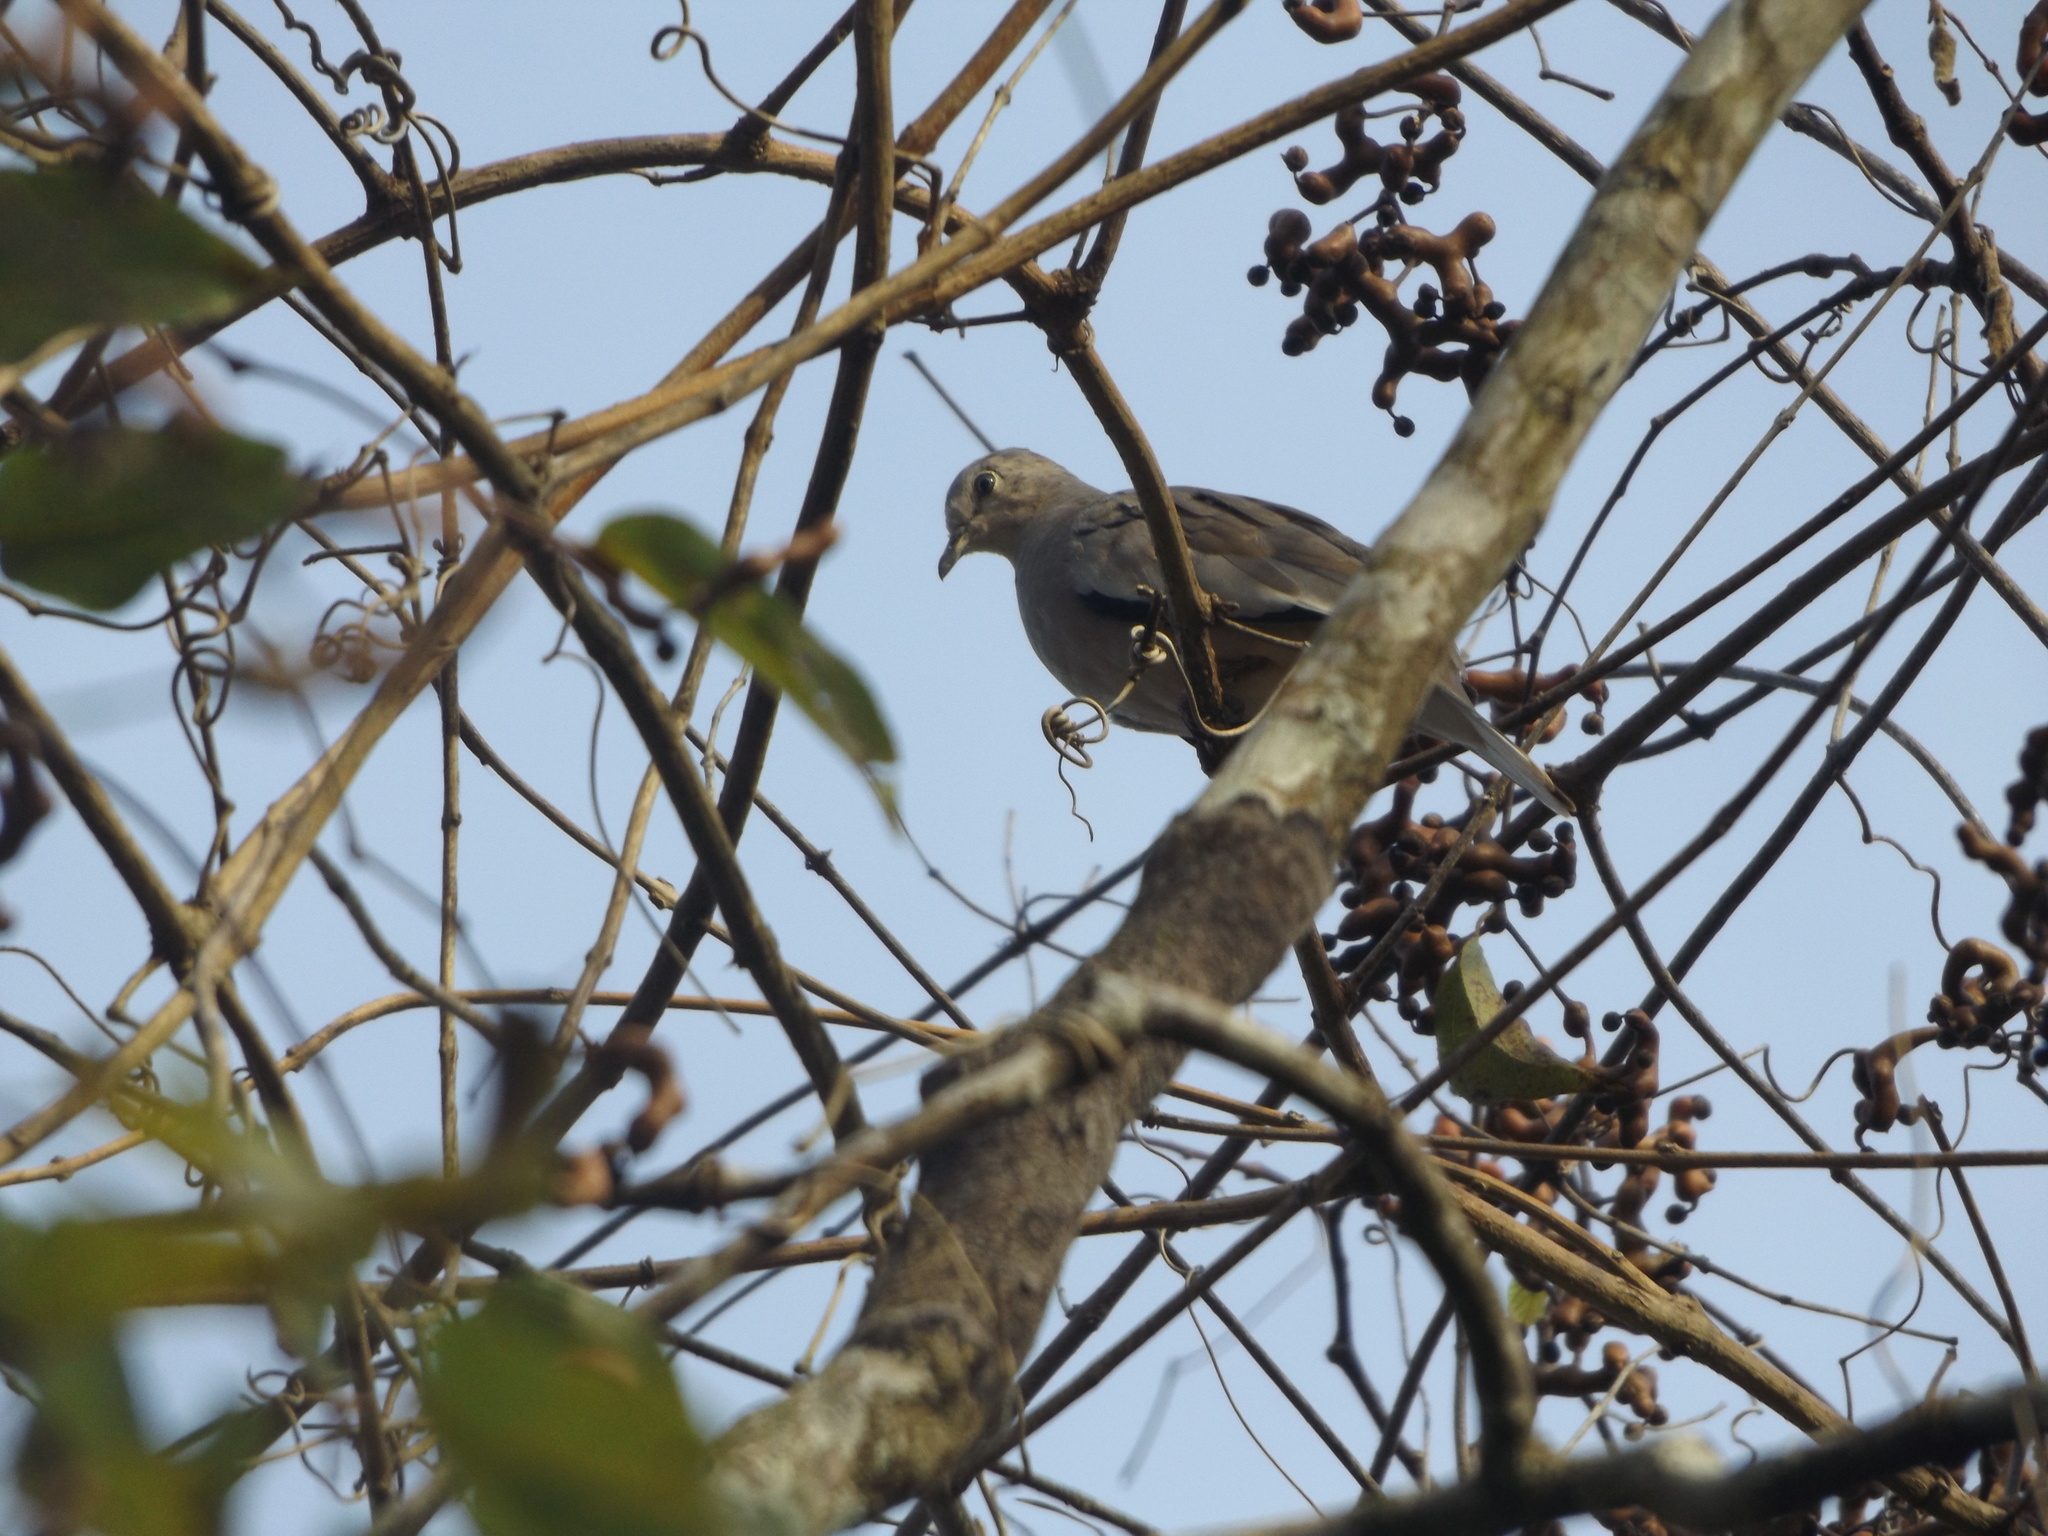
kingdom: Animalia
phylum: Chordata
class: Aves
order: Columbiformes
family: Columbidae
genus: Columbina
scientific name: Columbina picui
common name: Picui ground dove
